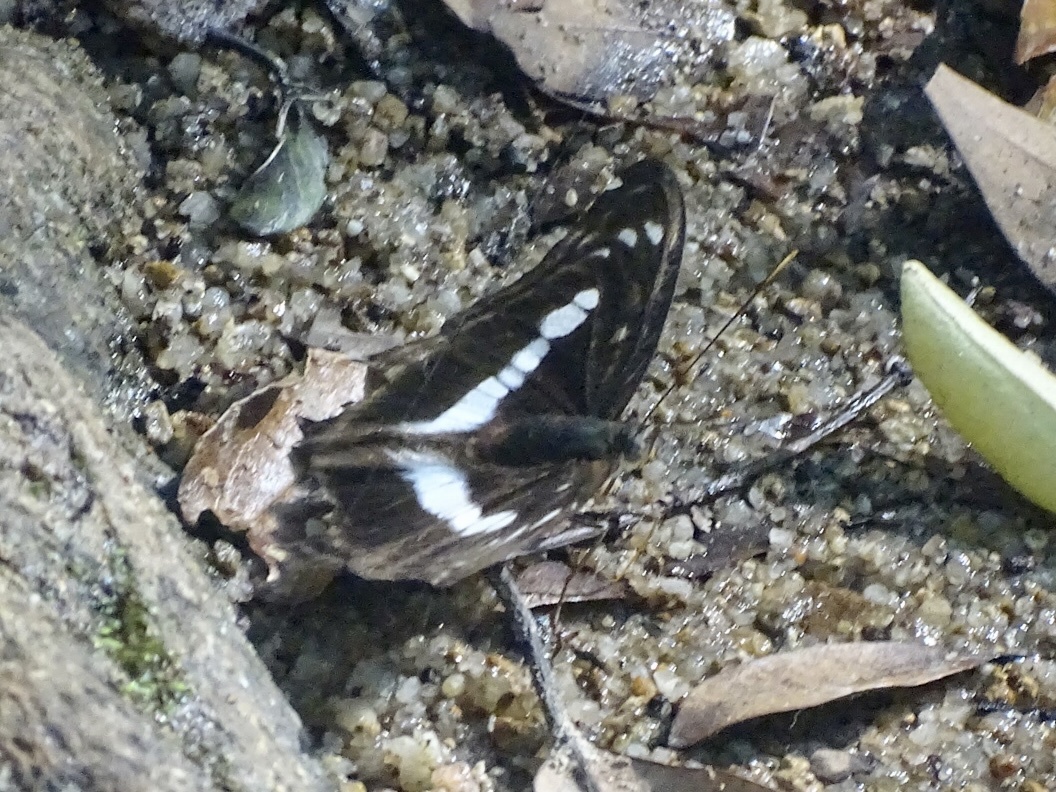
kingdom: Animalia
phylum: Arthropoda
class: Insecta
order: Lepidoptera
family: Nymphalidae
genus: Parathyma
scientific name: Parathyma selenophora
